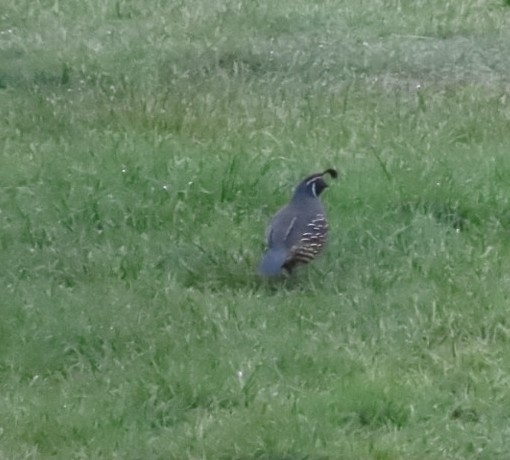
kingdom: Animalia
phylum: Chordata
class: Aves
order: Galliformes
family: Odontophoridae
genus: Callipepla
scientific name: Callipepla californica
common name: California quail
